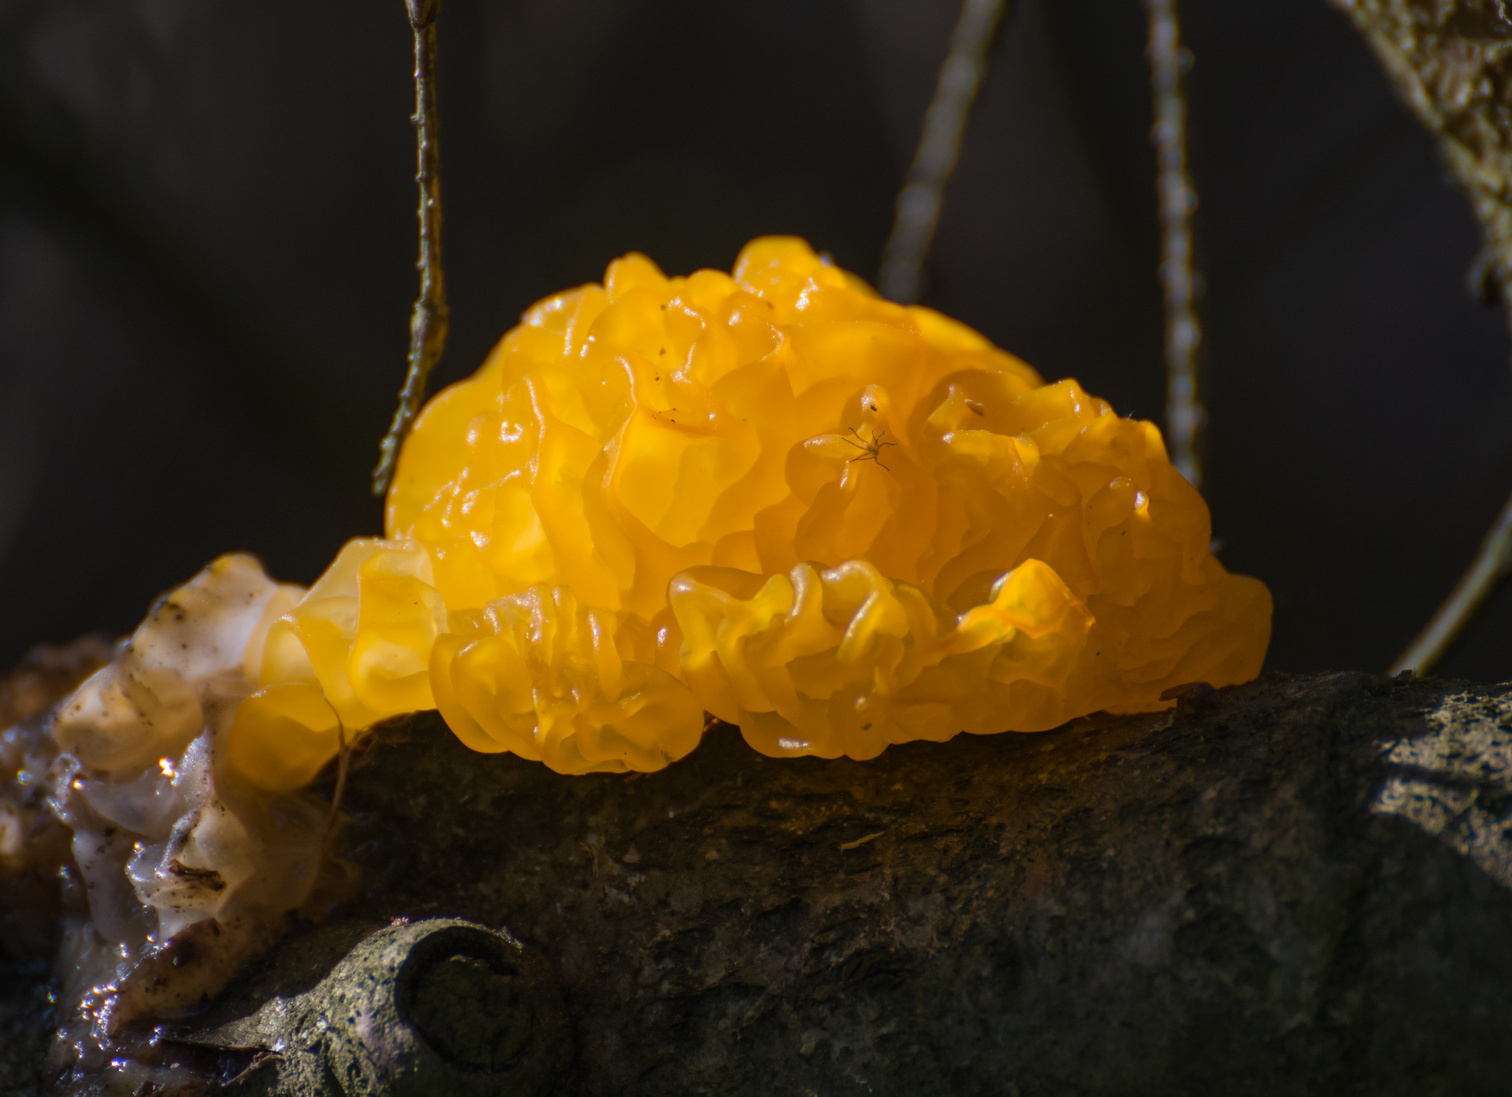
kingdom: Fungi
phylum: Basidiomycota
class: Tremellomycetes
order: Tremellales
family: Tremellaceae
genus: Tremella
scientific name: Tremella mesenterica
